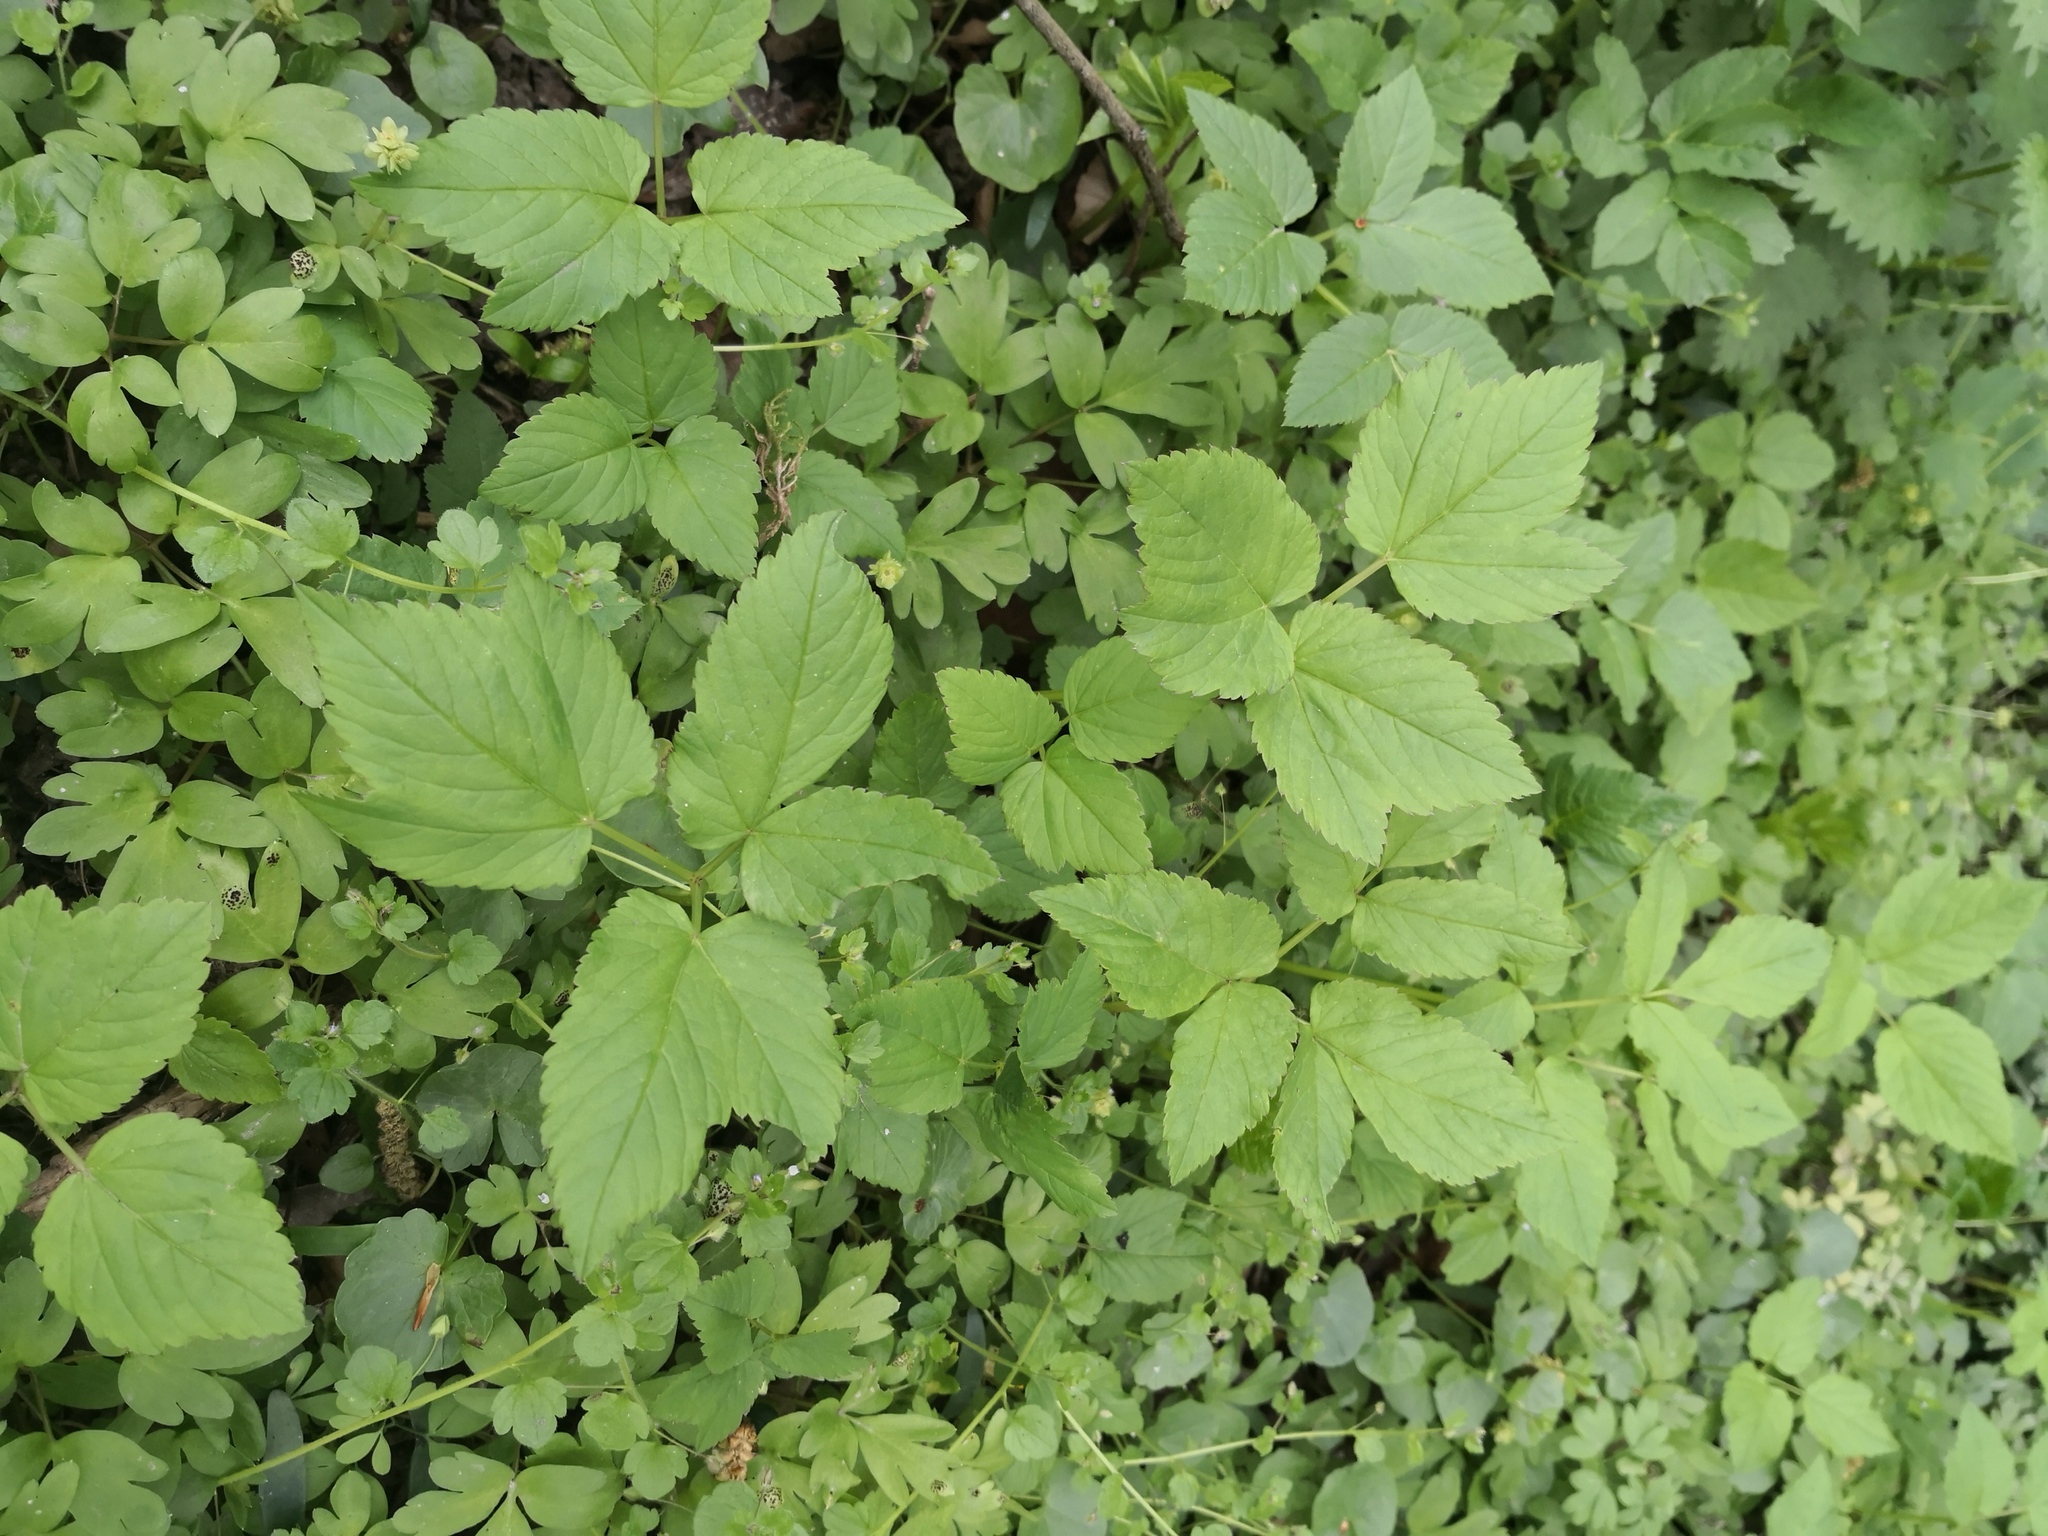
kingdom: Plantae
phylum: Tracheophyta
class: Magnoliopsida
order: Apiales
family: Apiaceae
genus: Aegopodium
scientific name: Aegopodium podagraria
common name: Ground-elder
